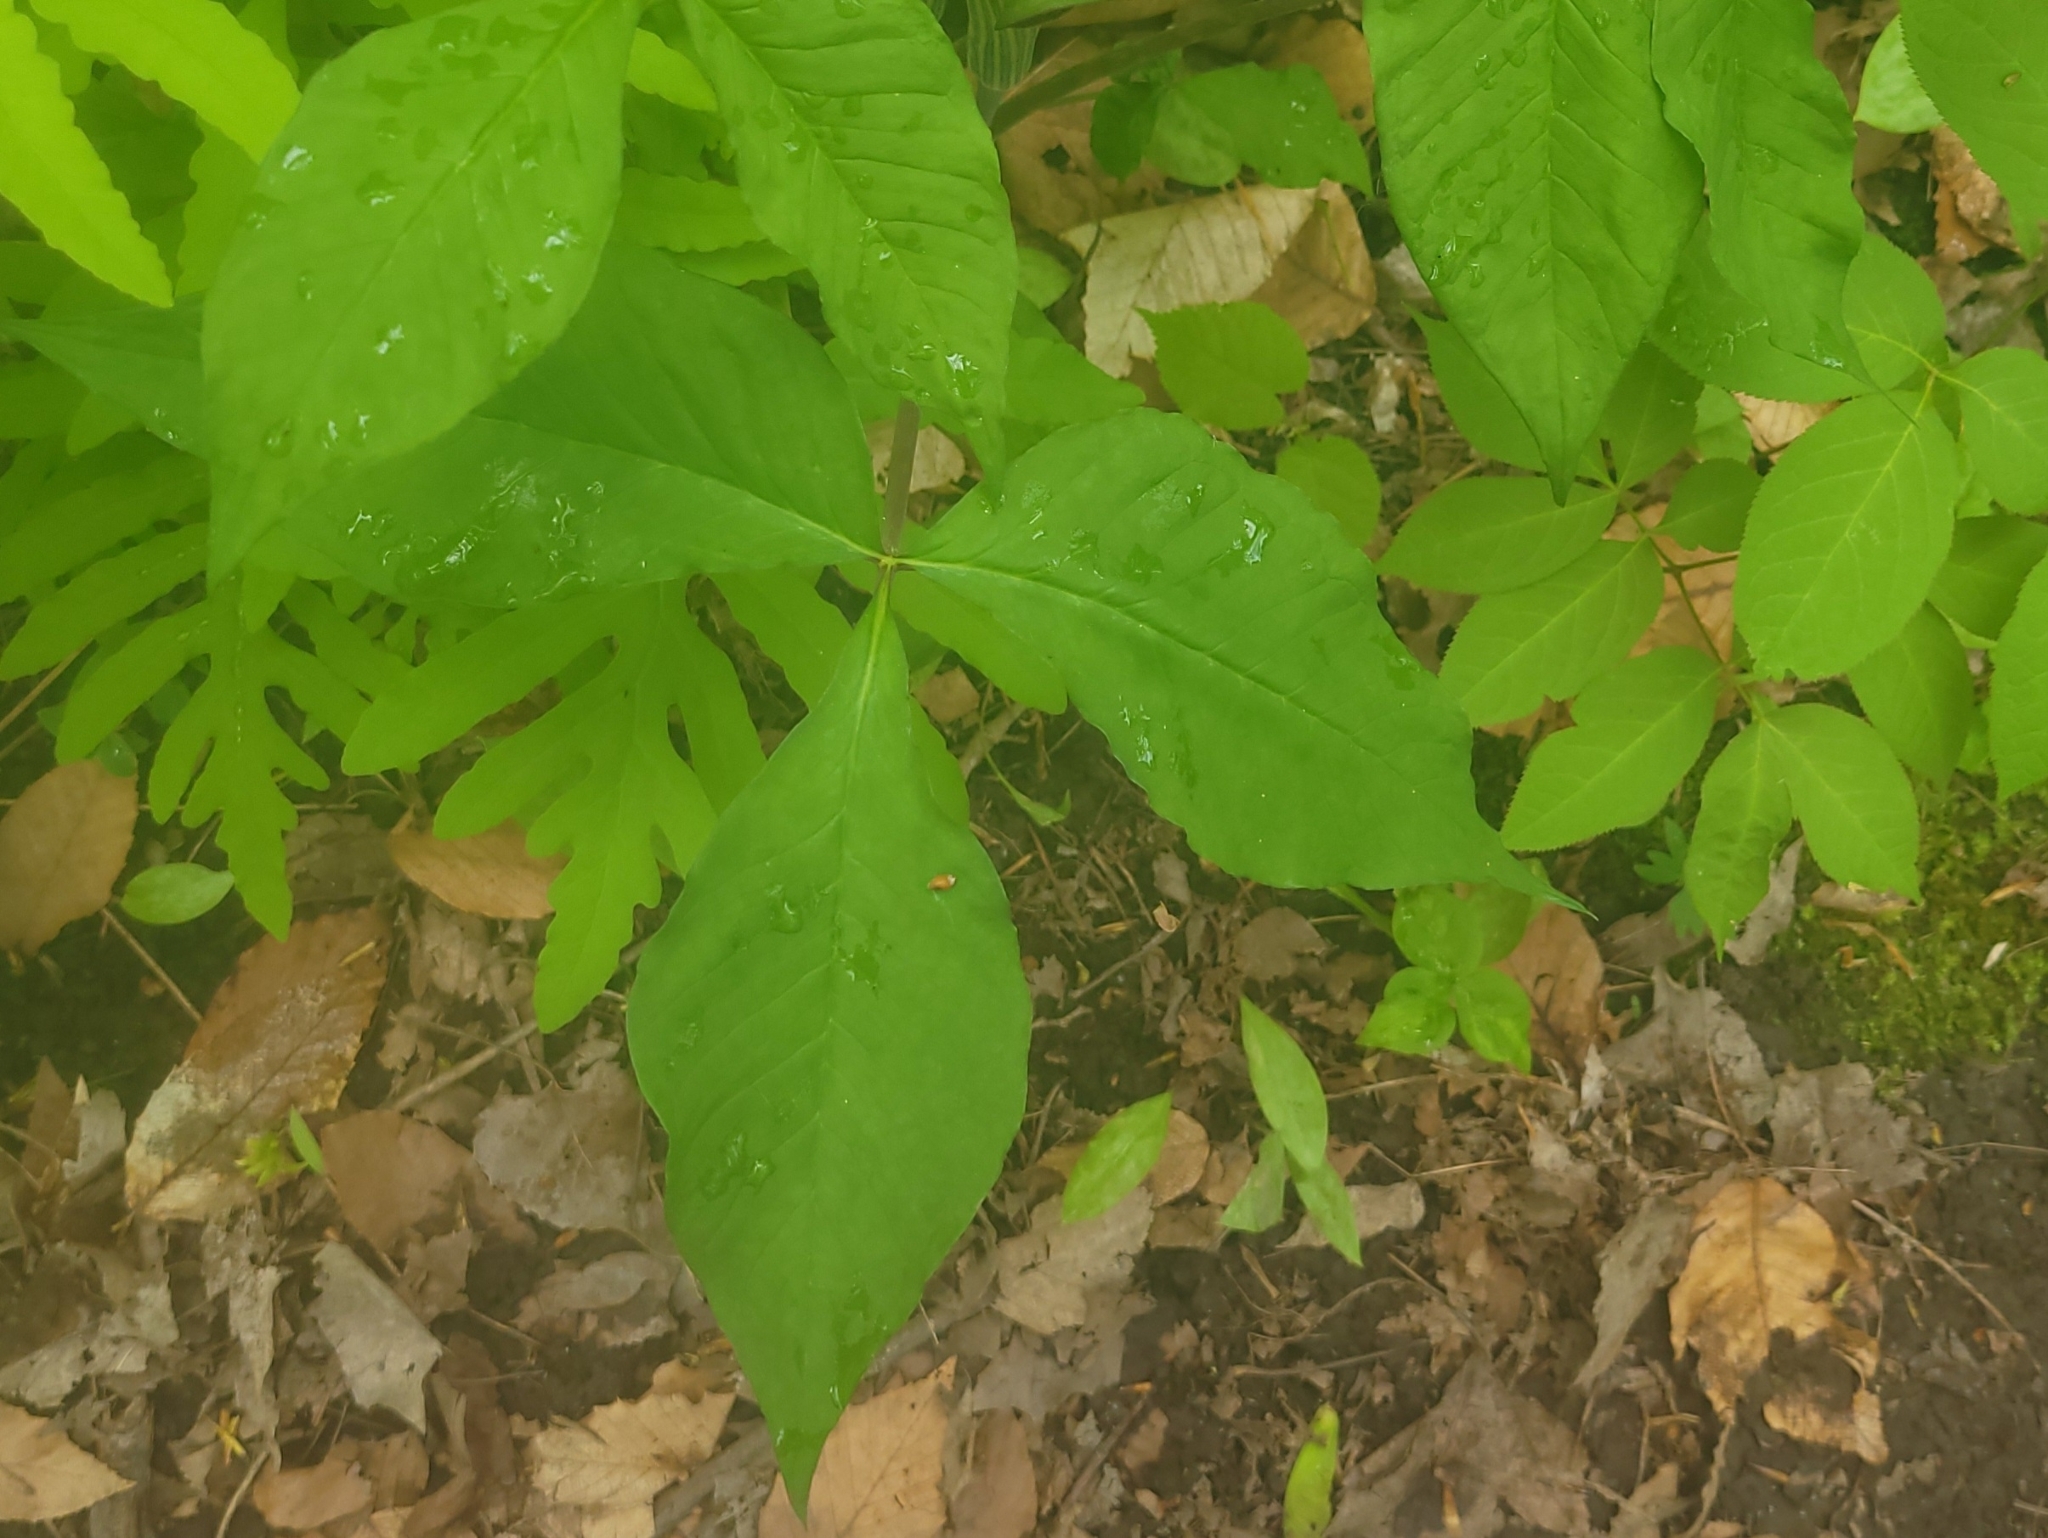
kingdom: Plantae
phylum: Tracheophyta
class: Liliopsida
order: Alismatales
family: Araceae
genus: Arisaema
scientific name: Arisaema triphyllum
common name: Jack-in-the-pulpit
